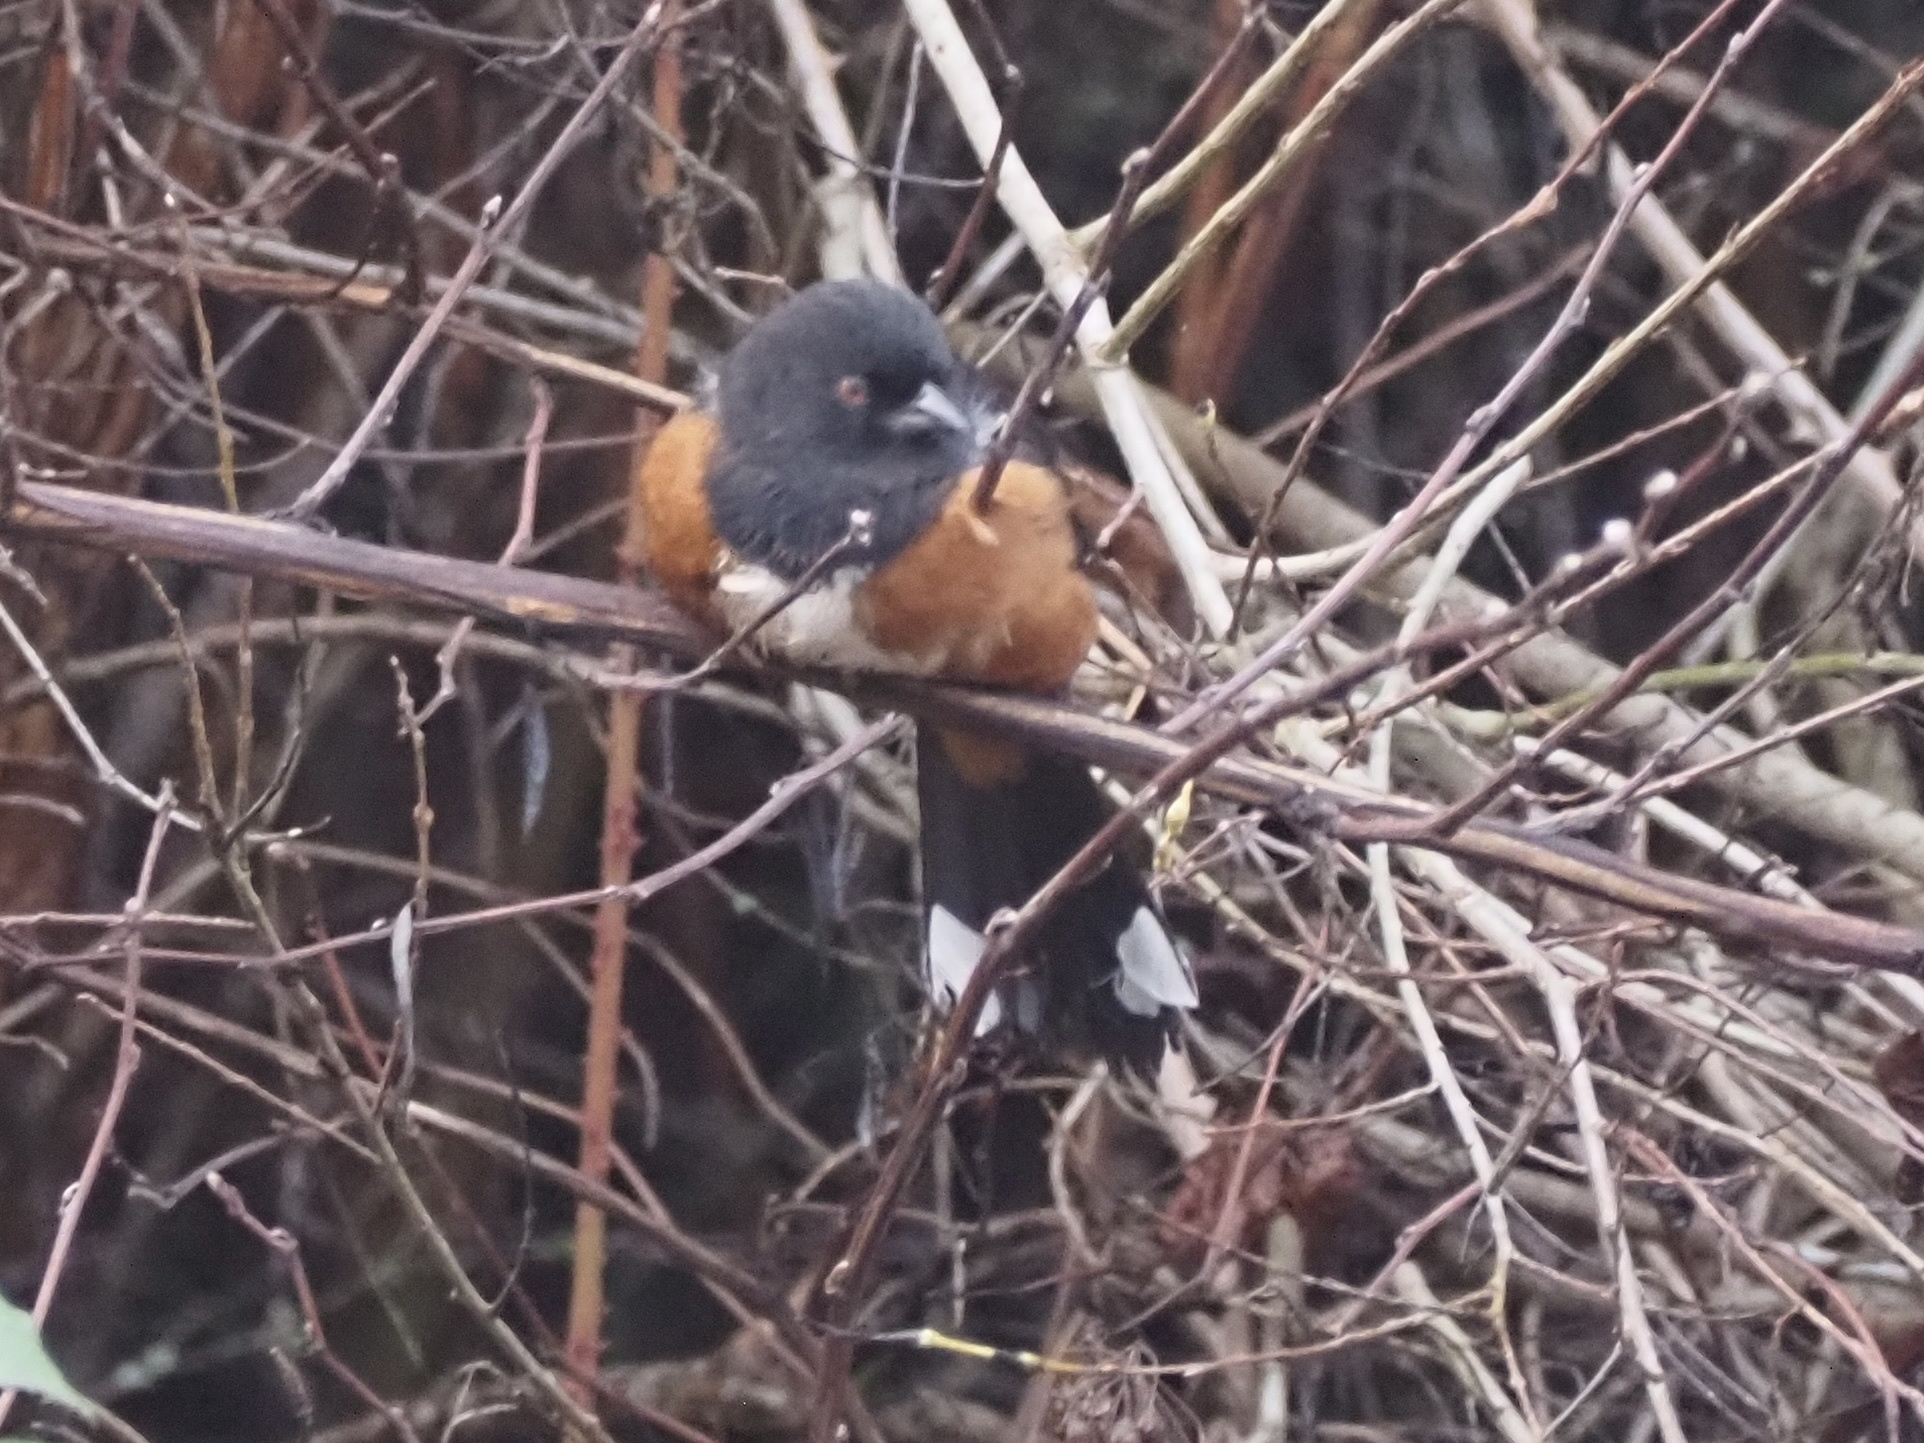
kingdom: Animalia
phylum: Chordata
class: Aves
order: Passeriformes
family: Passerellidae
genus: Pipilo
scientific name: Pipilo maculatus
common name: Spotted towhee
